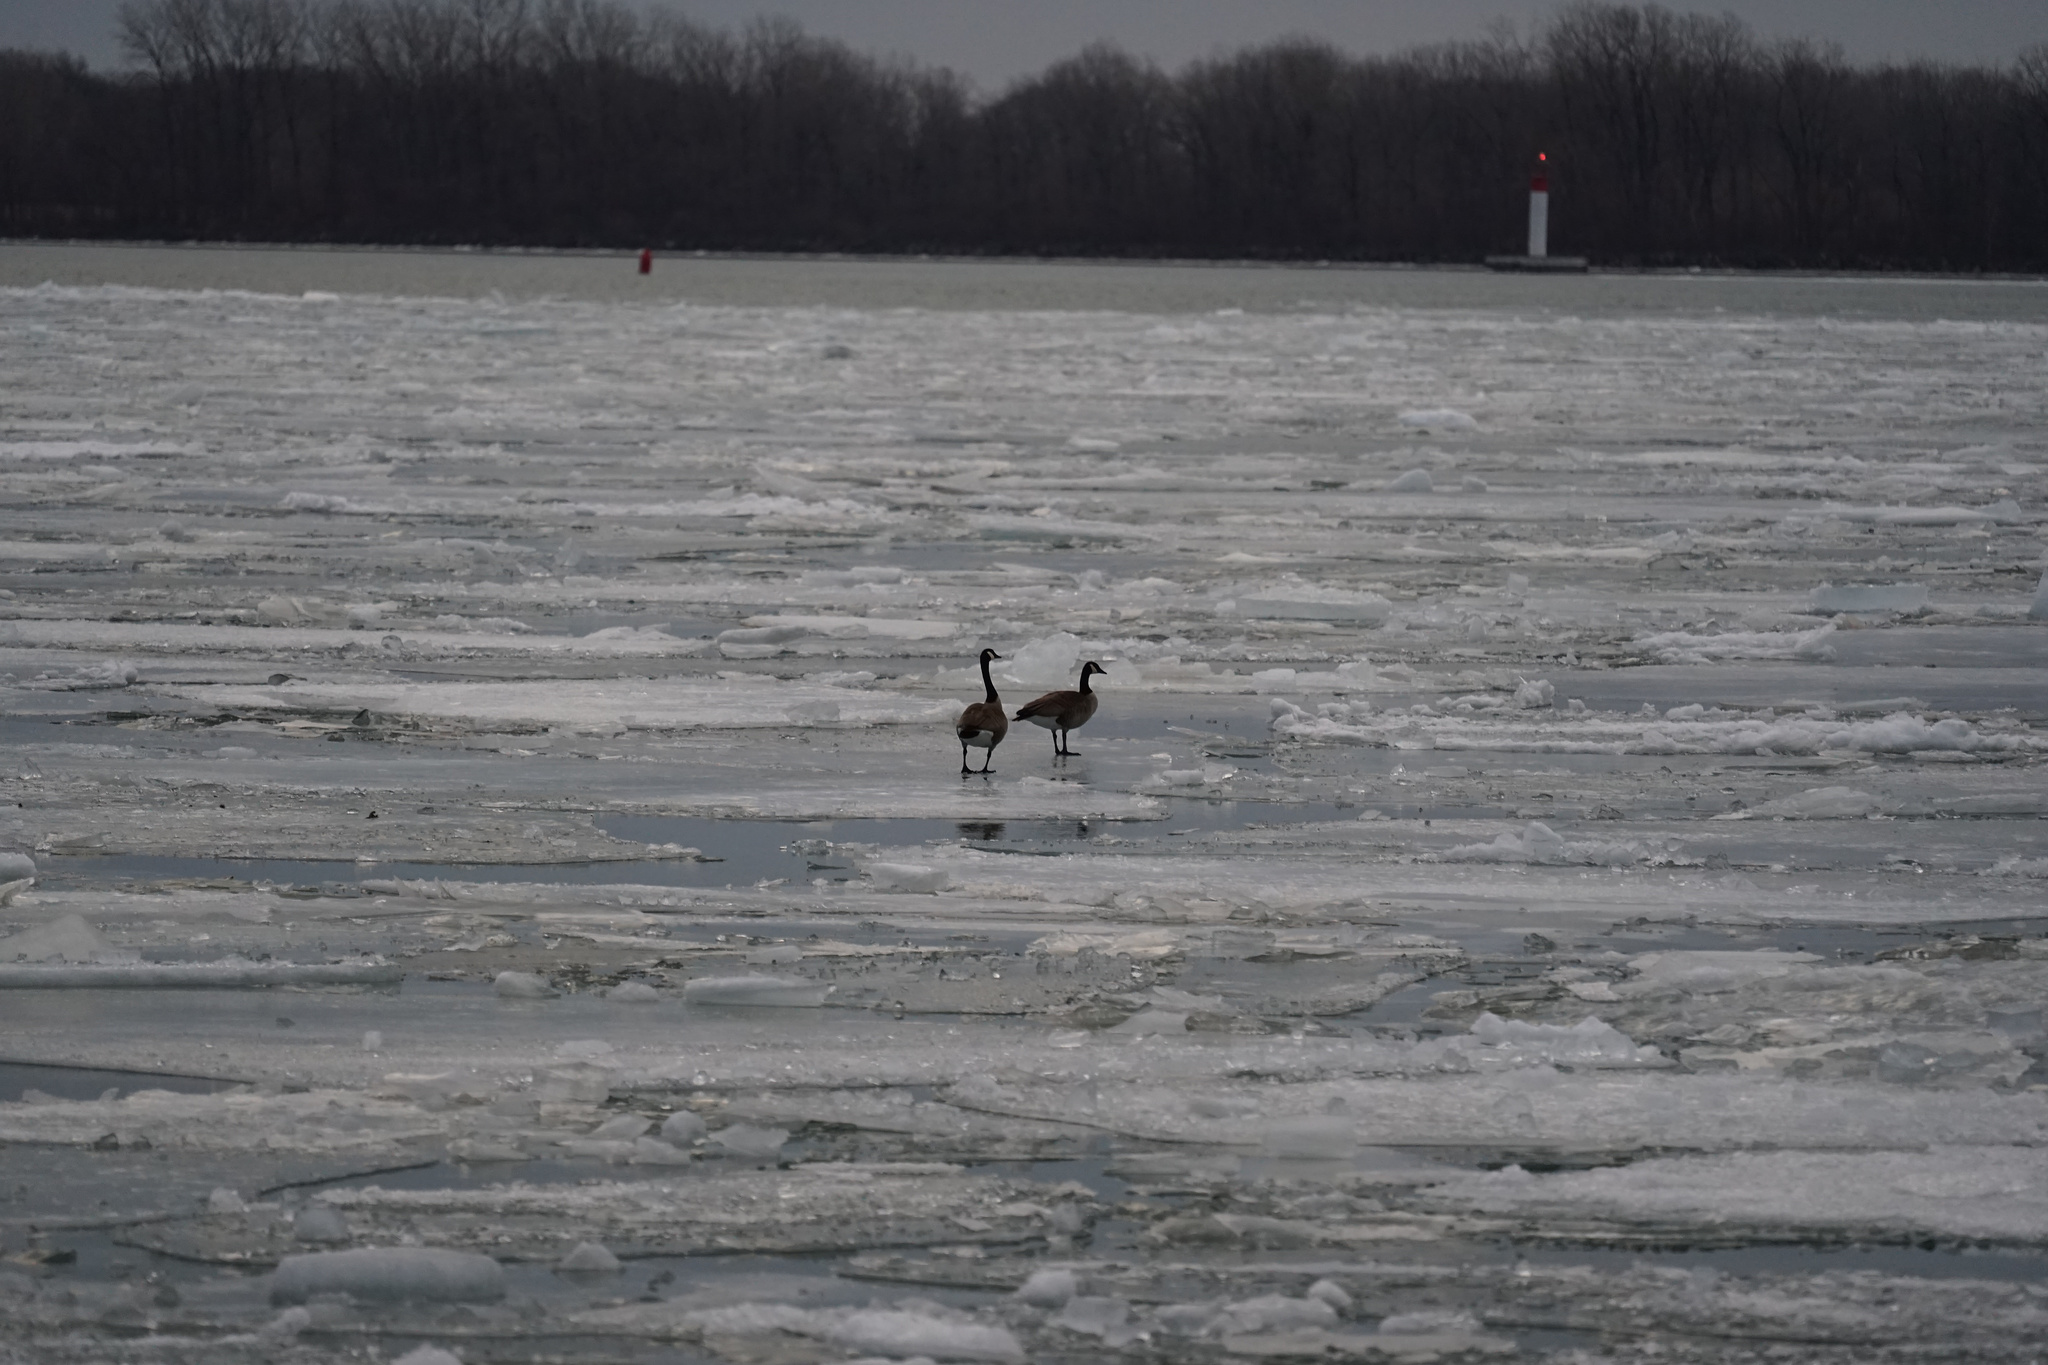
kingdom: Animalia
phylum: Chordata
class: Aves
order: Anseriformes
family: Anatidae
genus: Branta
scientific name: Branta canadensis
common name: Canada goose
